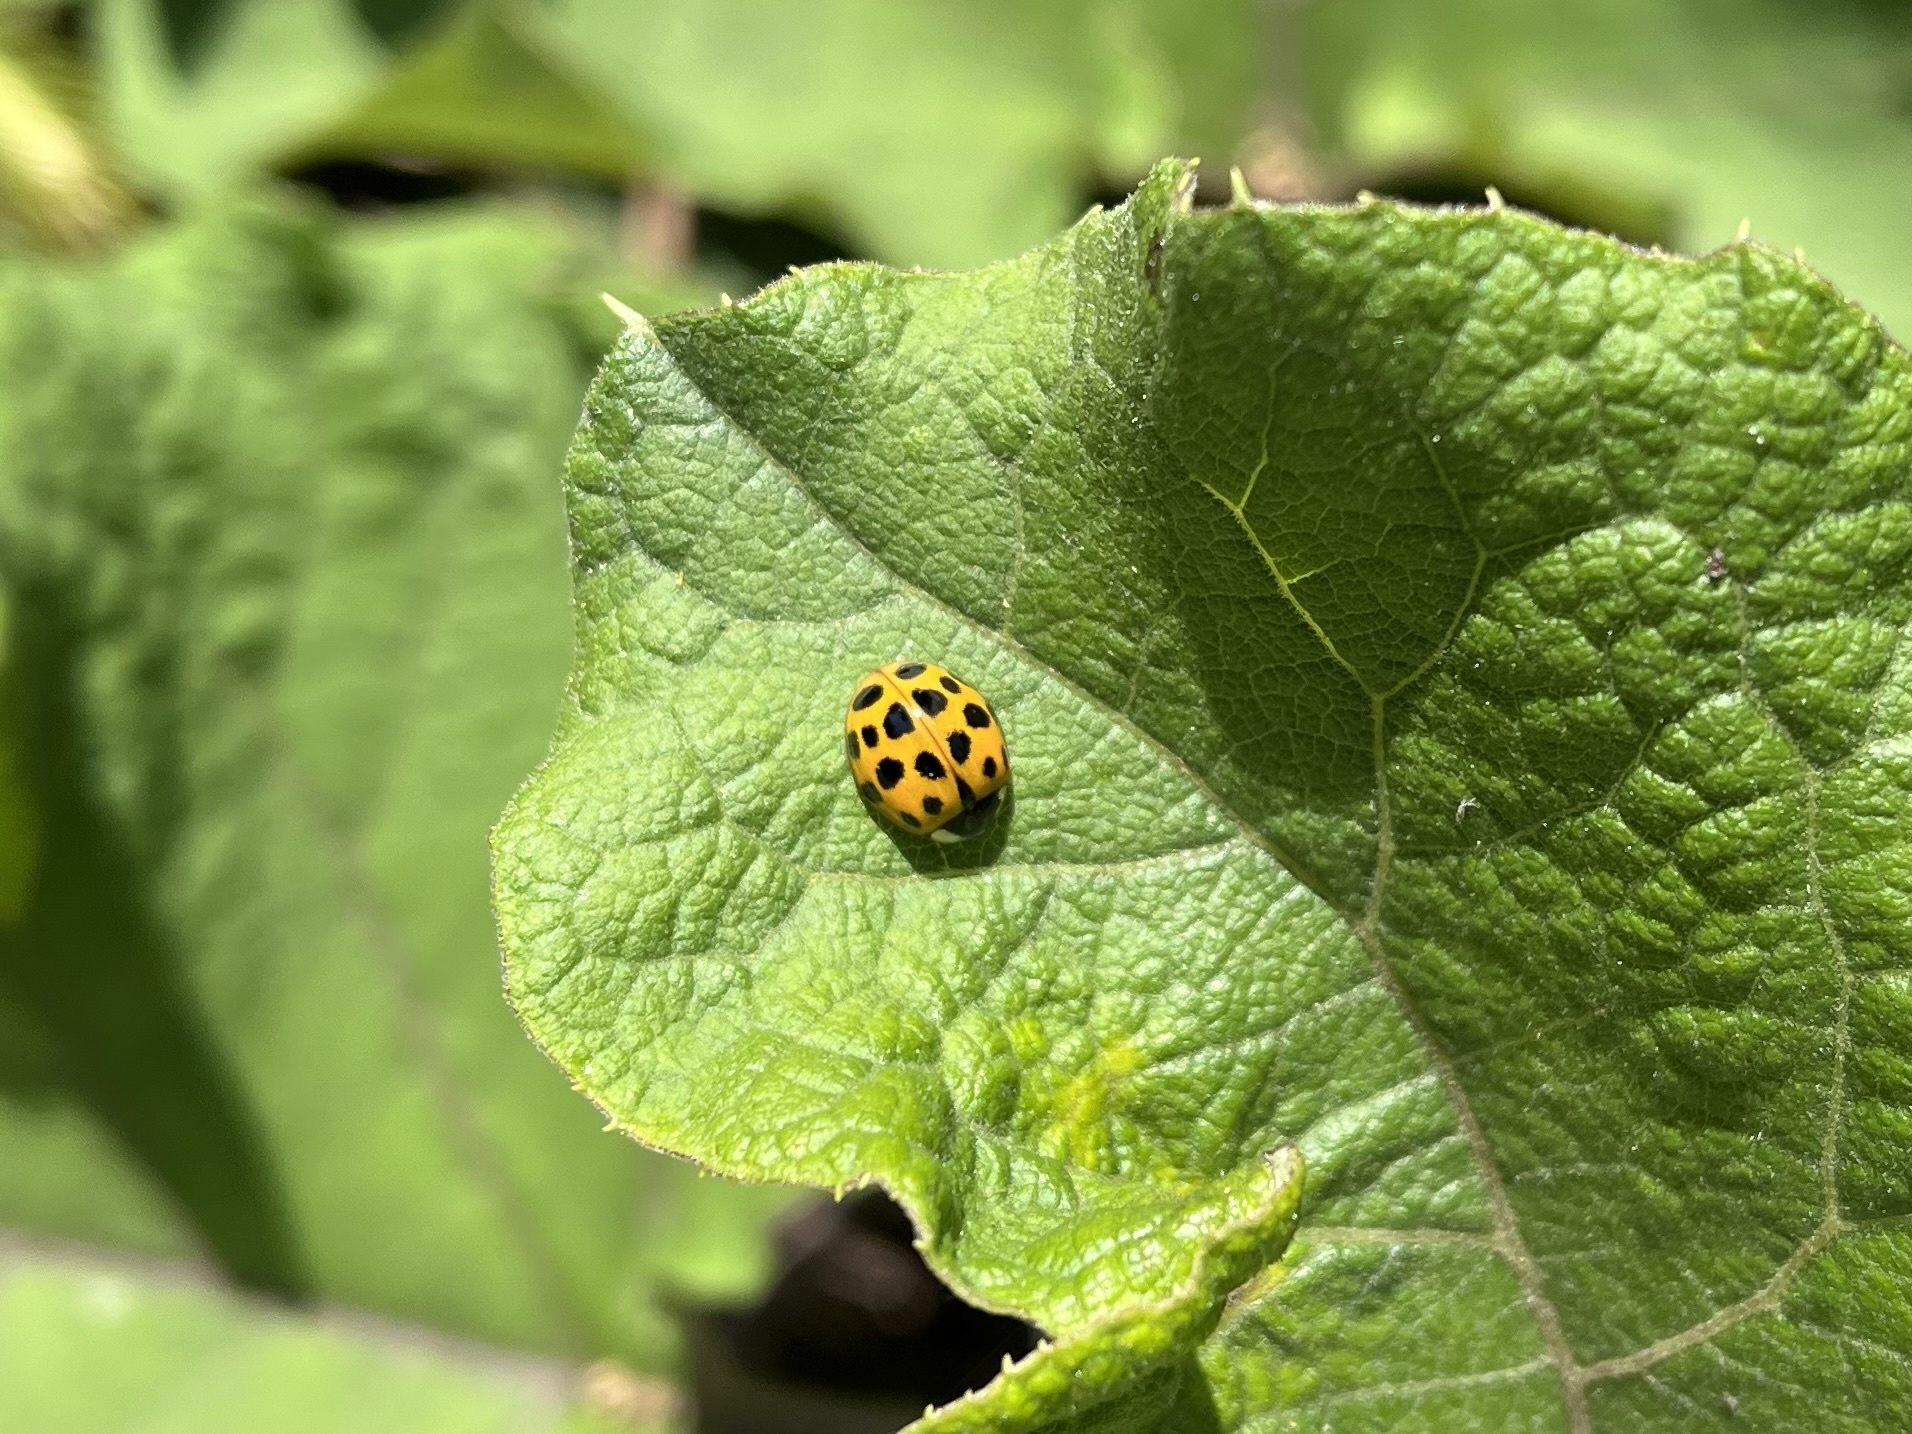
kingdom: Animalia
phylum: Arthropoda
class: Insecta
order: Coleoptera
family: Coccinellidae
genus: Harmonia
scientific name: Harmonia axyridis
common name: Harlequin ladybird
